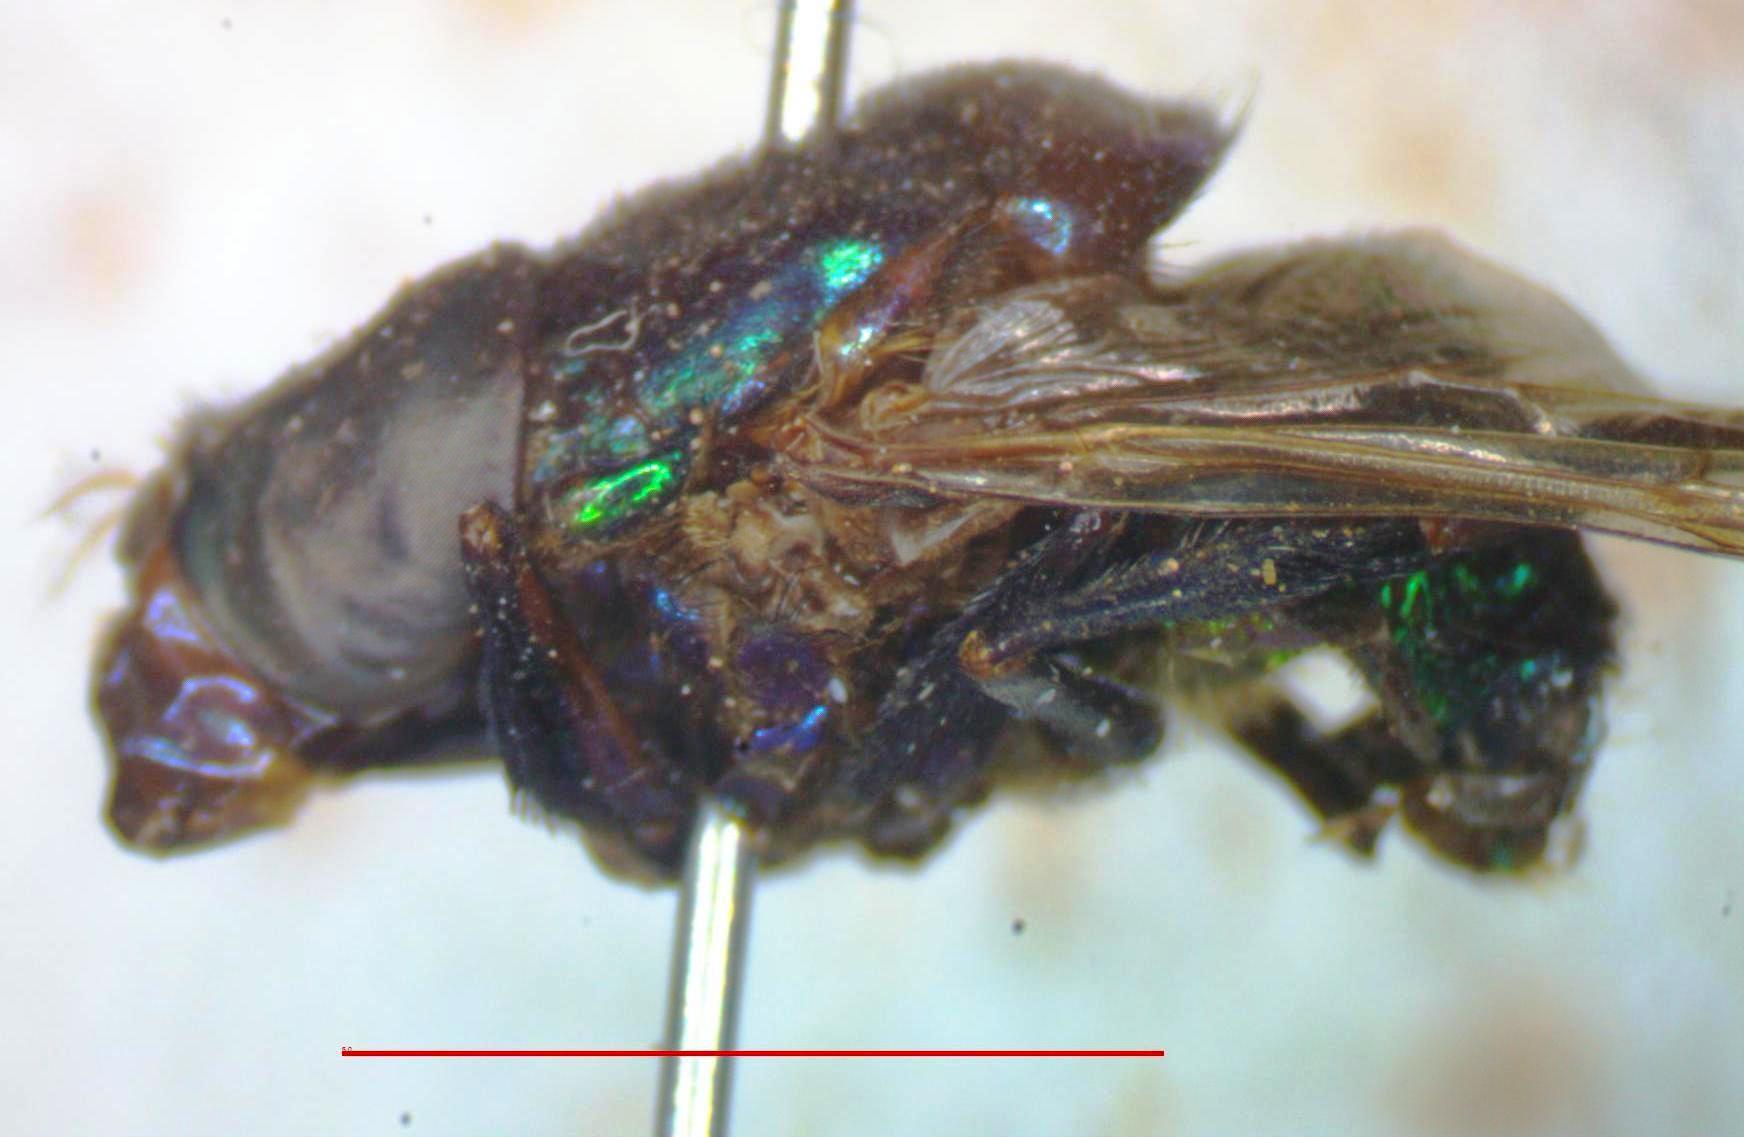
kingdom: Animalia
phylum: Arthropoda
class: Insecta
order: Diptera
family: Syrphidae
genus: Ornidia
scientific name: Ornidia obesa
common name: Syrphid fly
